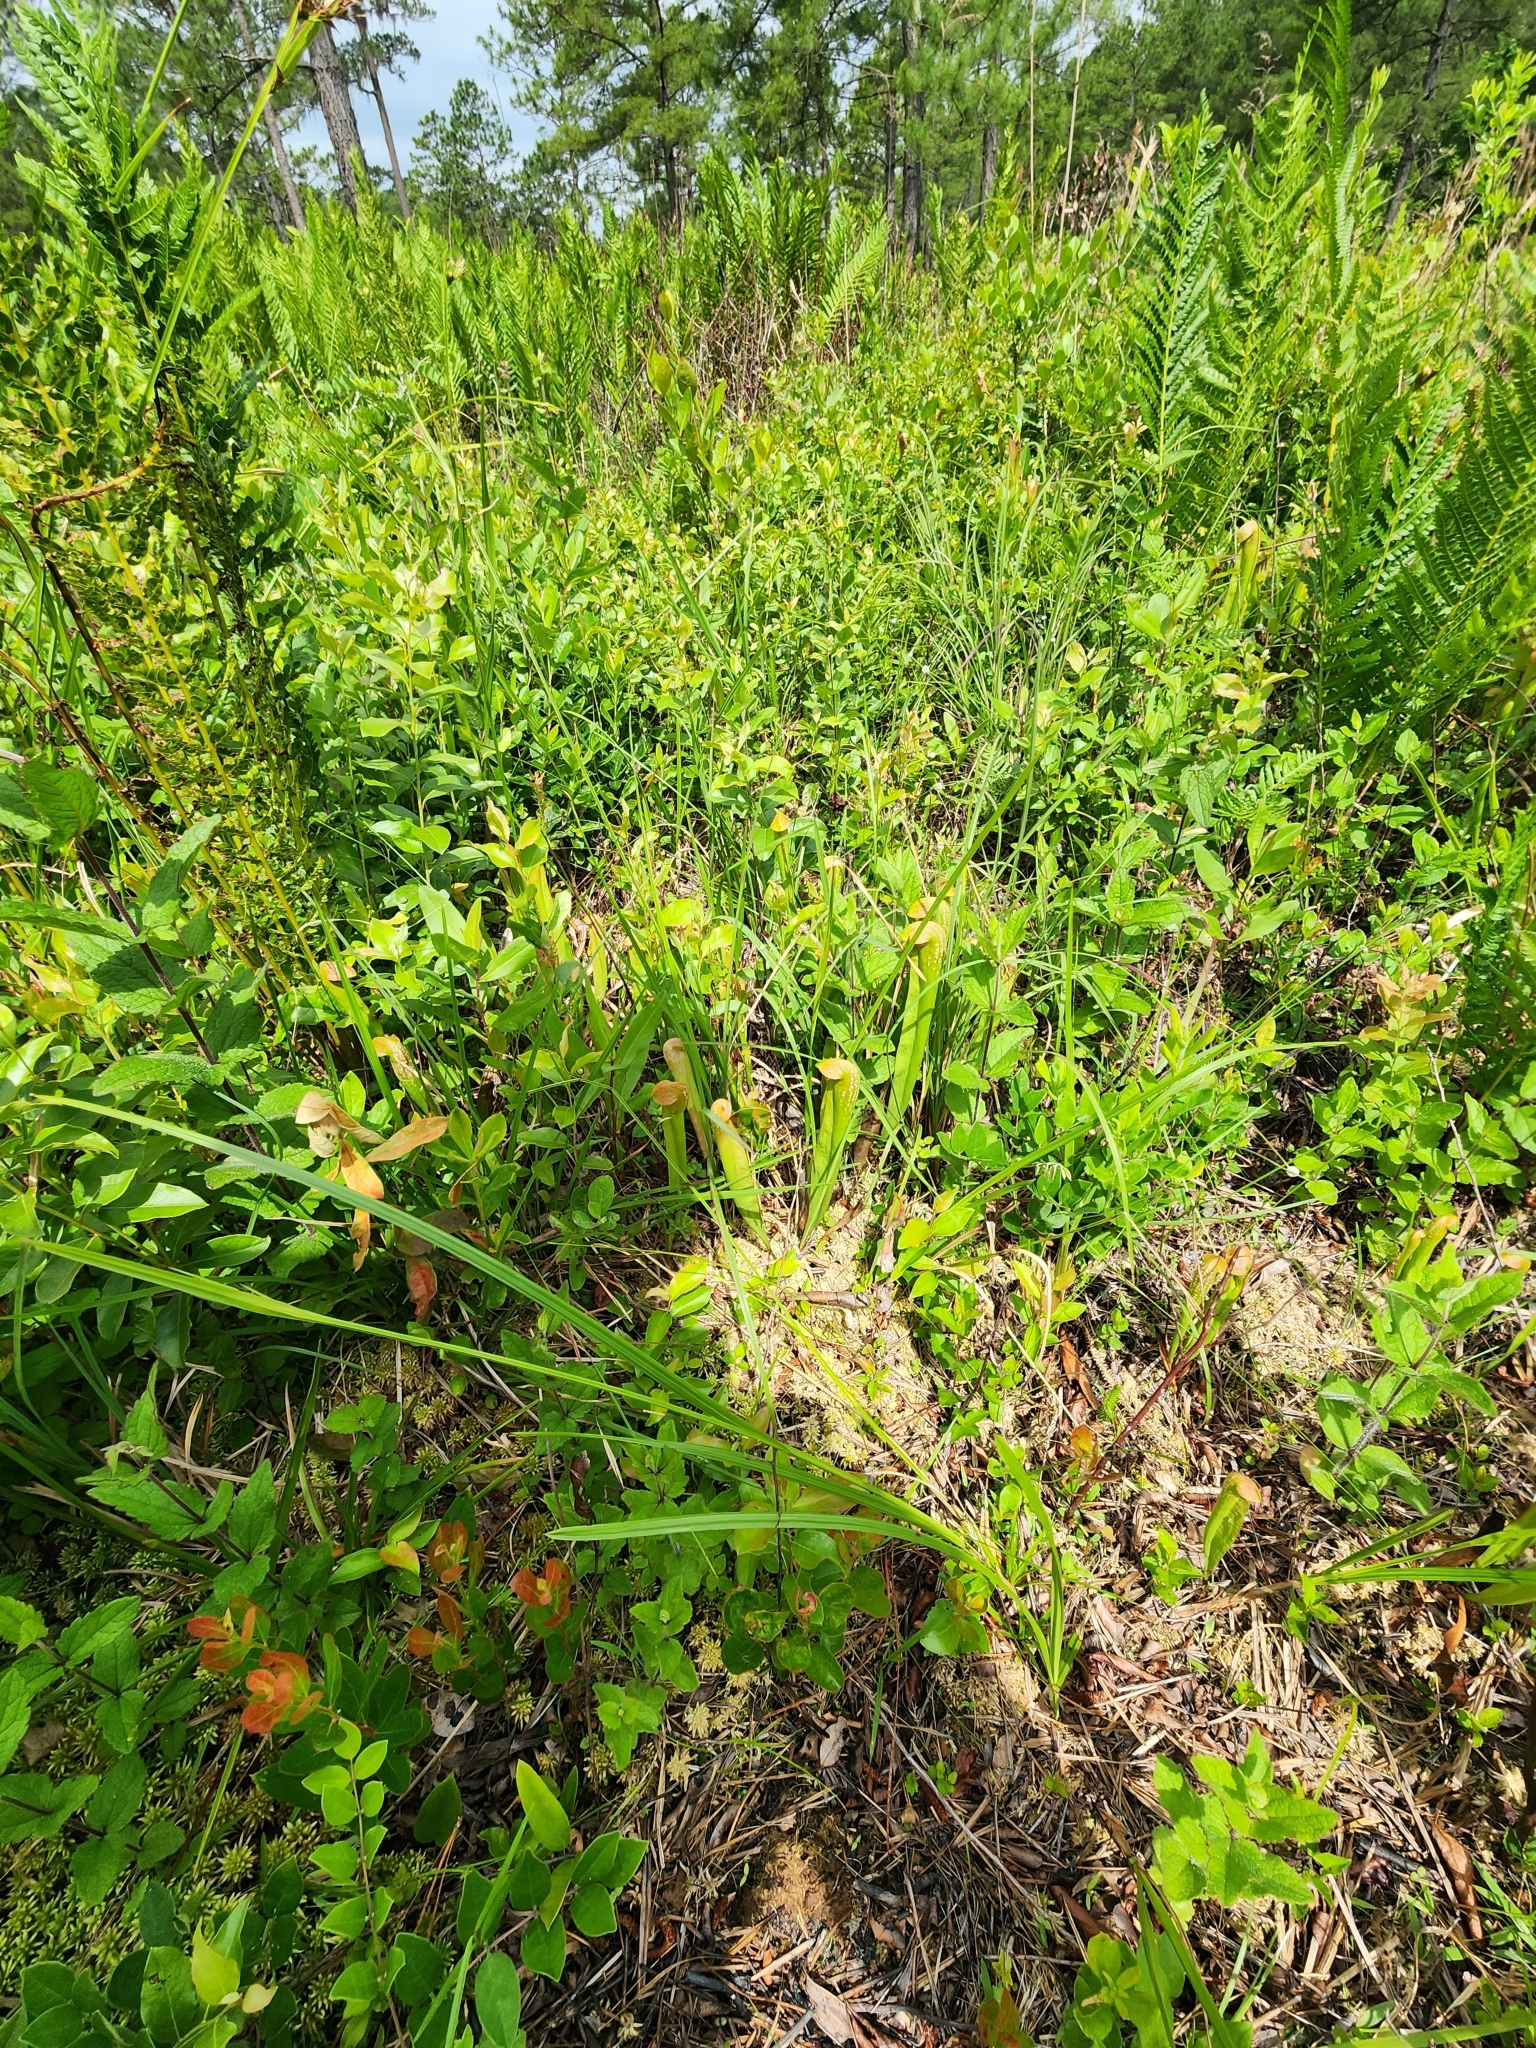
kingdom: Plantae
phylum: Tracheophyta
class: Magnoliopsida
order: Ericales
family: Sarraceniaceae
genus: Sarracenia
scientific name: Sarracenia minor
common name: Rainhat-trumpet
